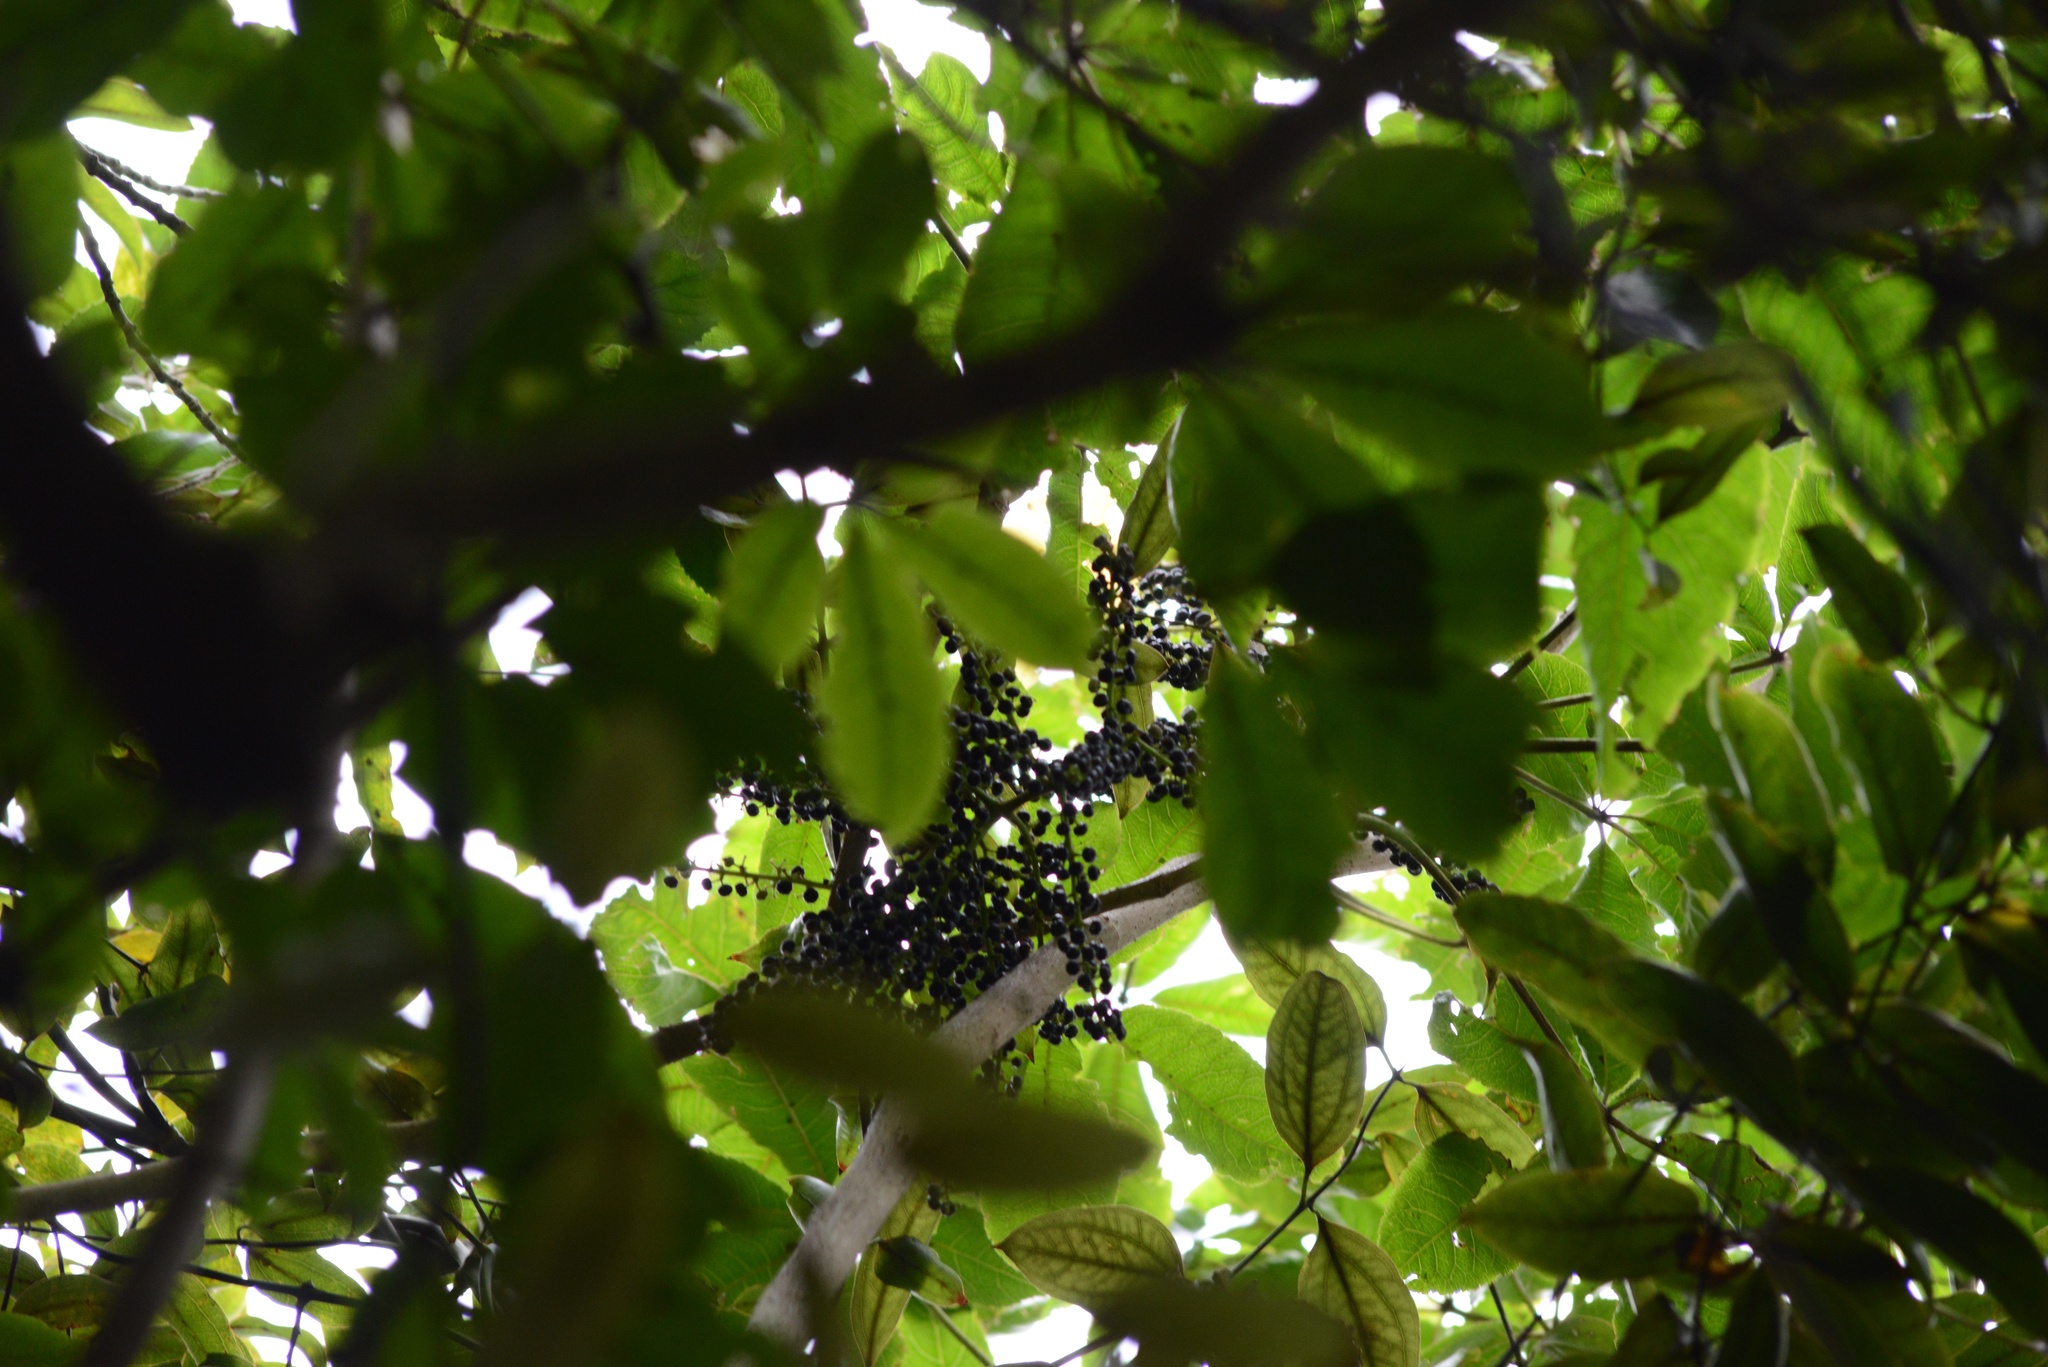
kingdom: Plantae
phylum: Tracheophyta
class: Magnoliopsida
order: Apiales
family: Araliaceae
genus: Schefflera
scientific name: Schefflera digitata
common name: Pate
